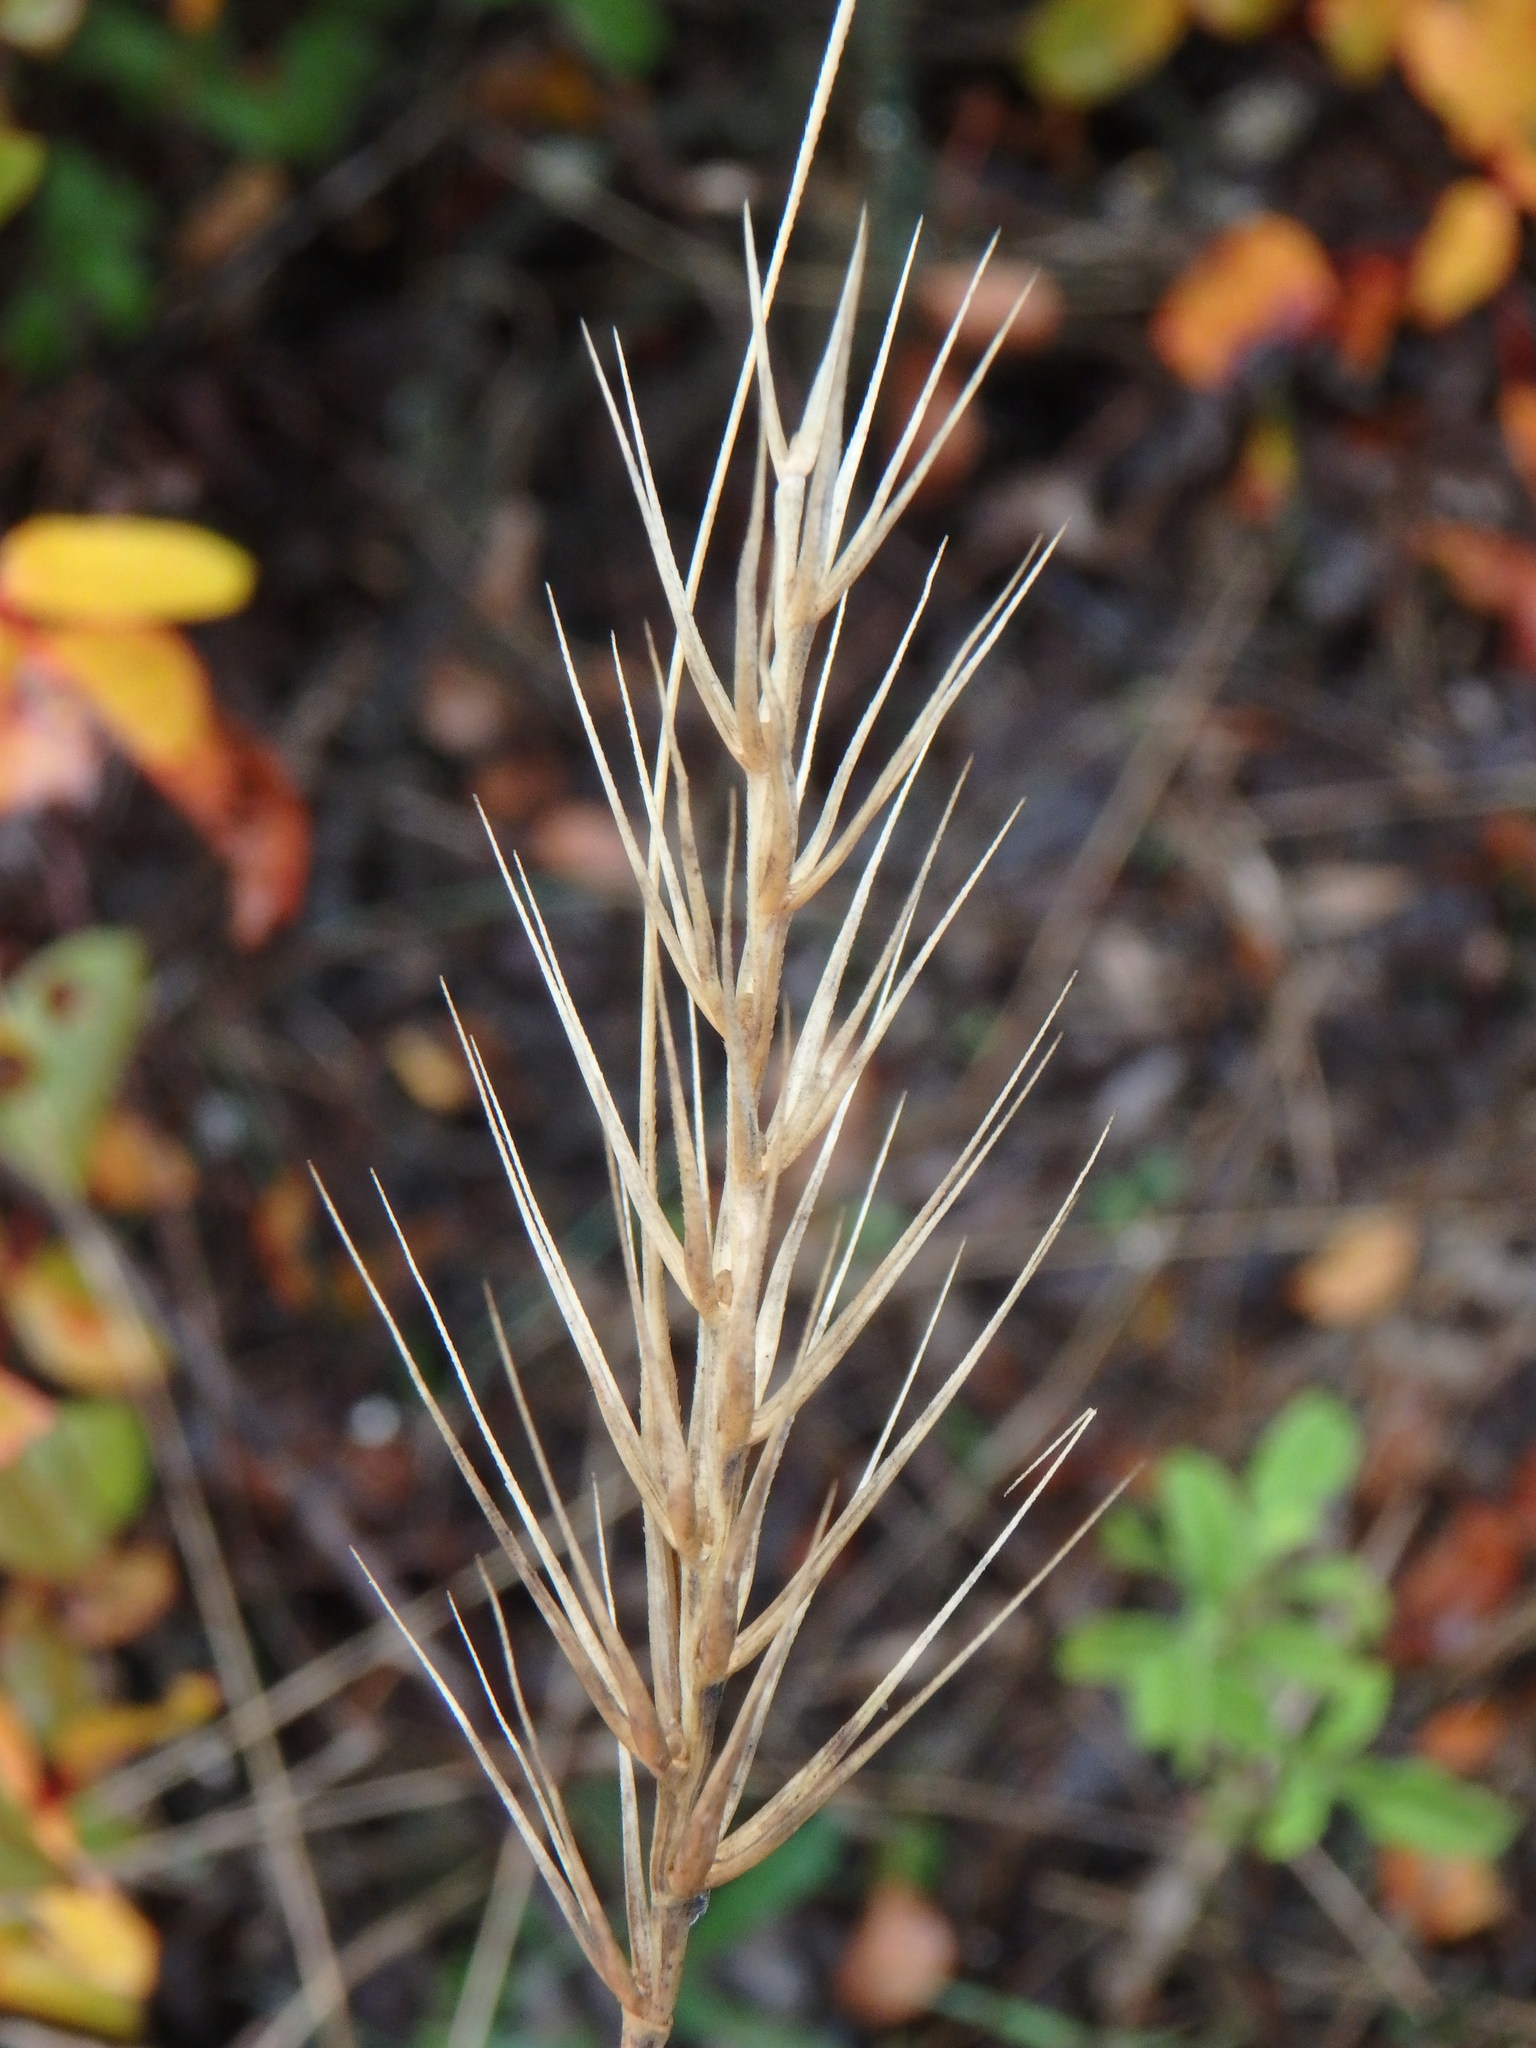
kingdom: Plantae
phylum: Tracheophyta
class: Liliopsida
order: Poales
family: Poaceae
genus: Taeniatherum
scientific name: Taeniatherum caput-medusae
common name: Medusahead
